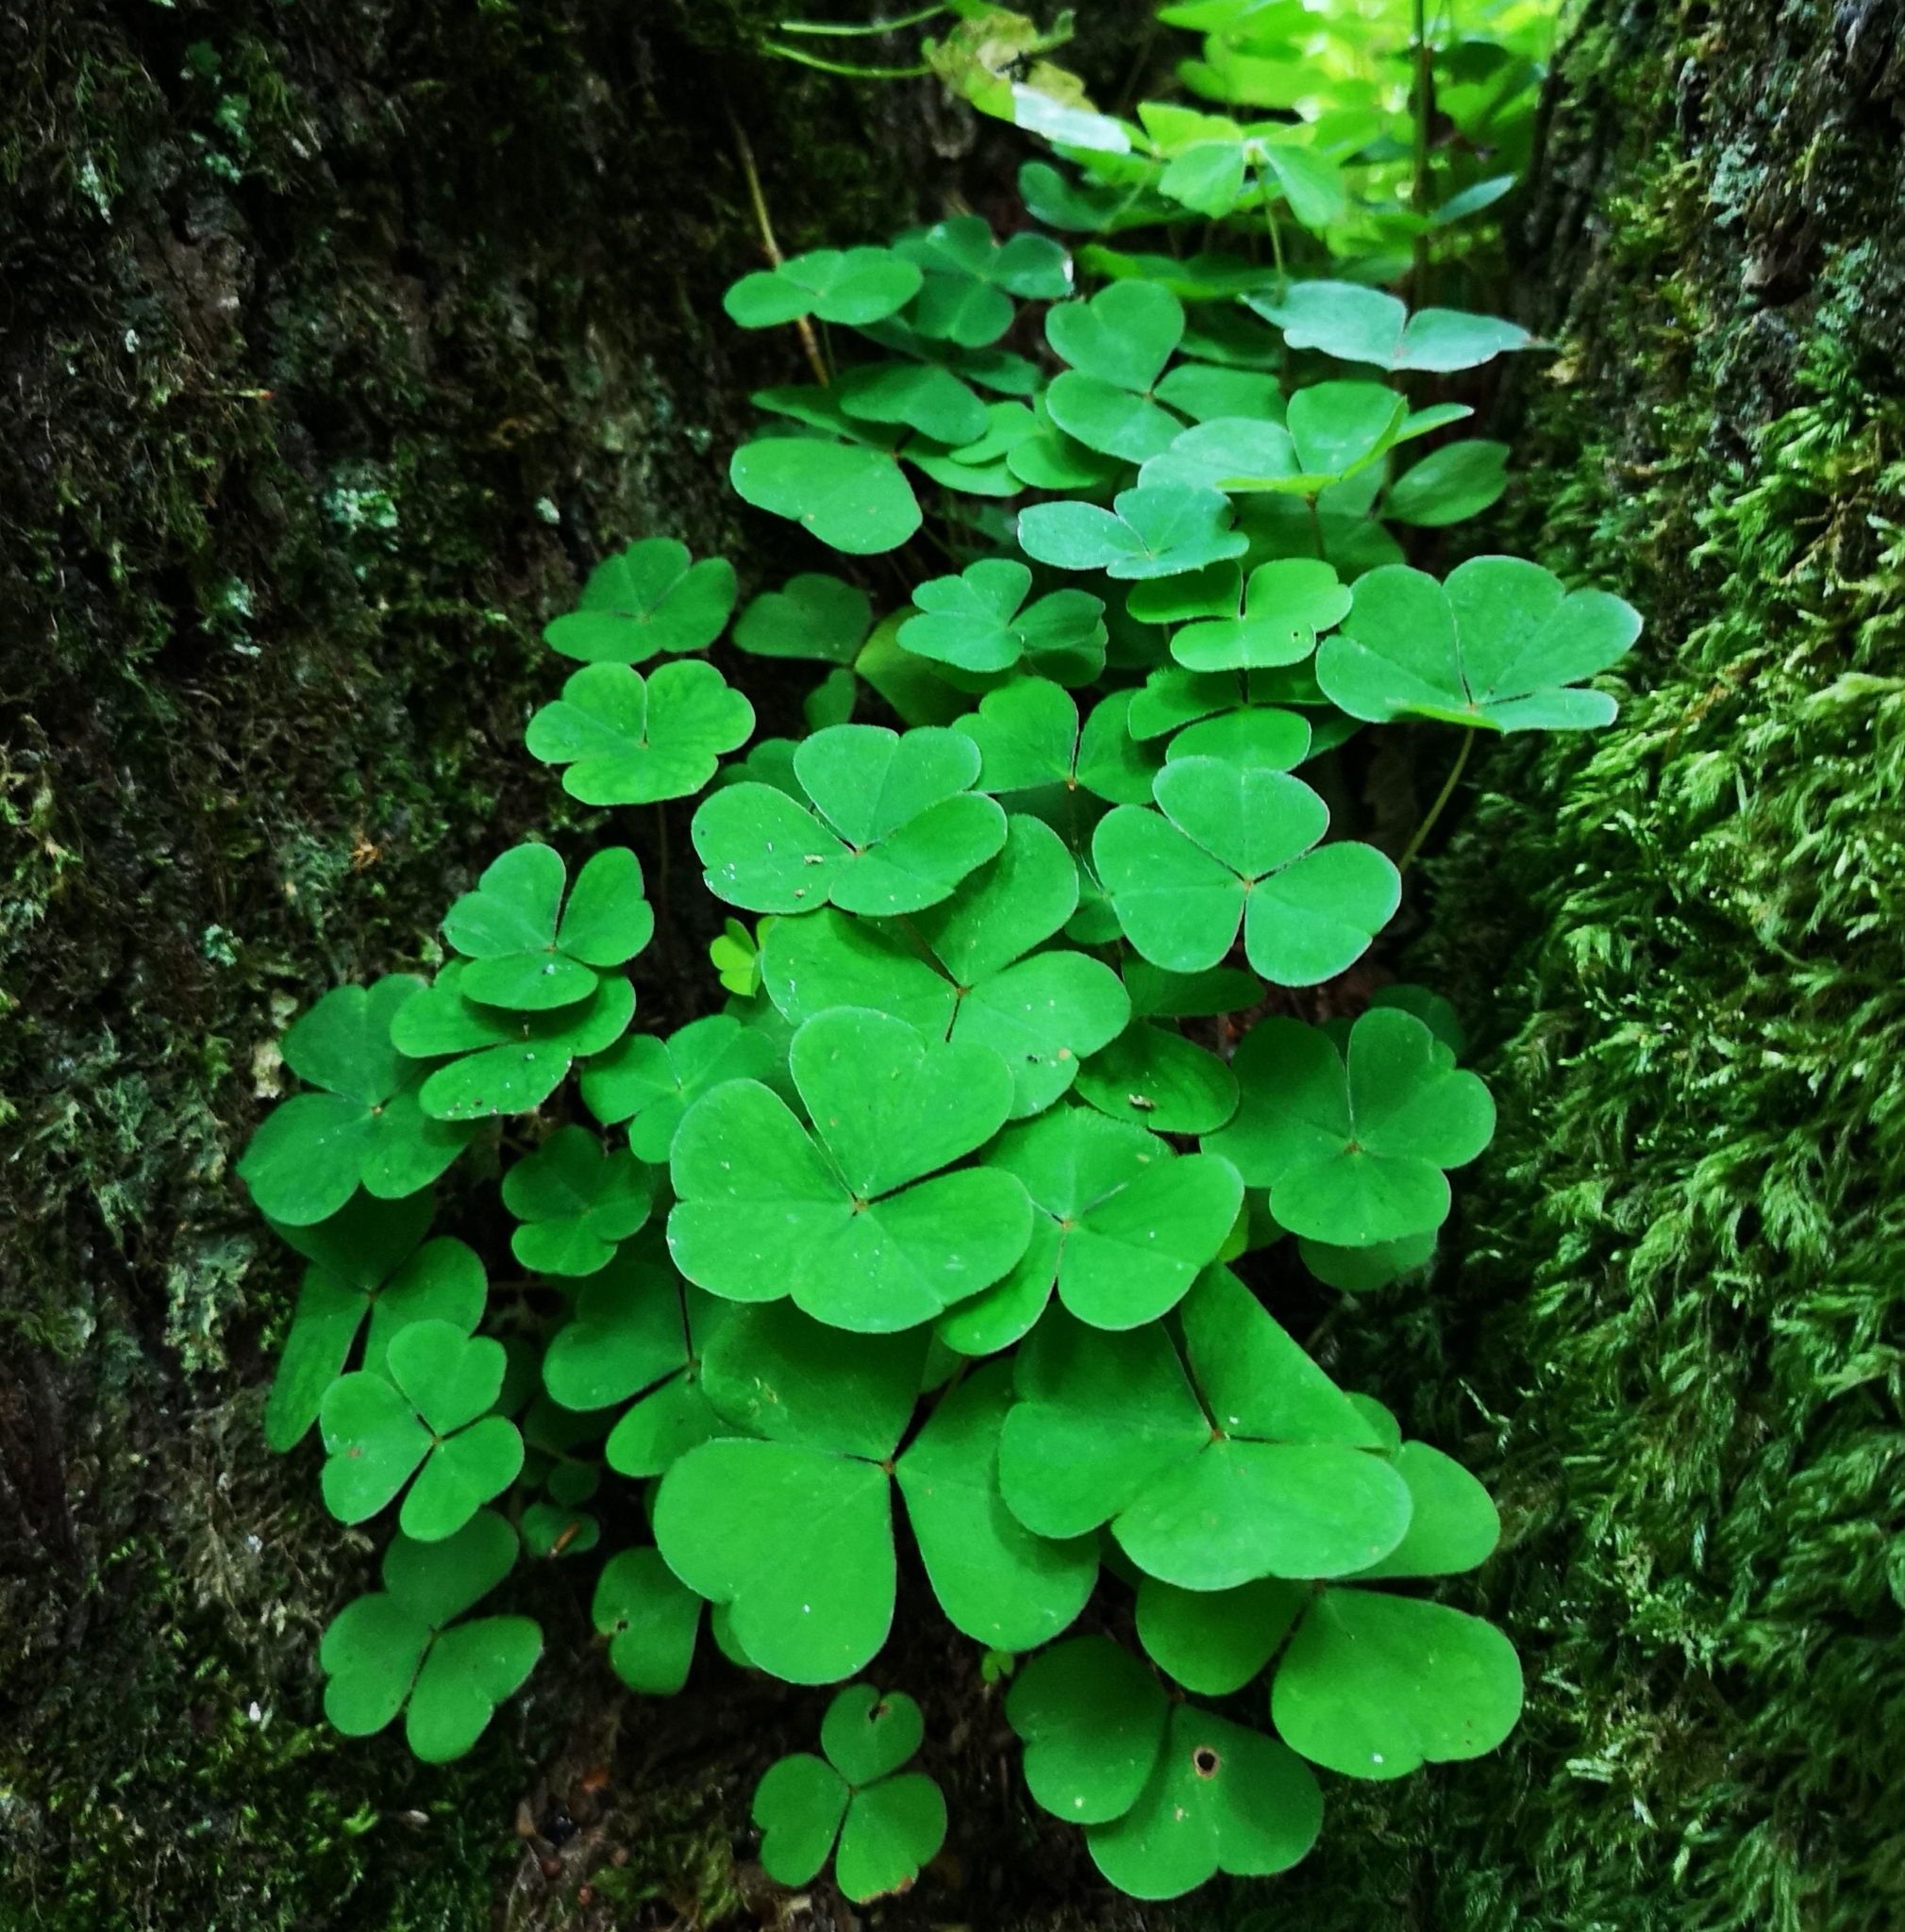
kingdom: Plantae
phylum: Tracheophyta
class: Magnoliopsida
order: Oxalidales
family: Oxalidaceae
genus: Oxalis
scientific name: Oxalis acetosella
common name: Wood-sorrel
